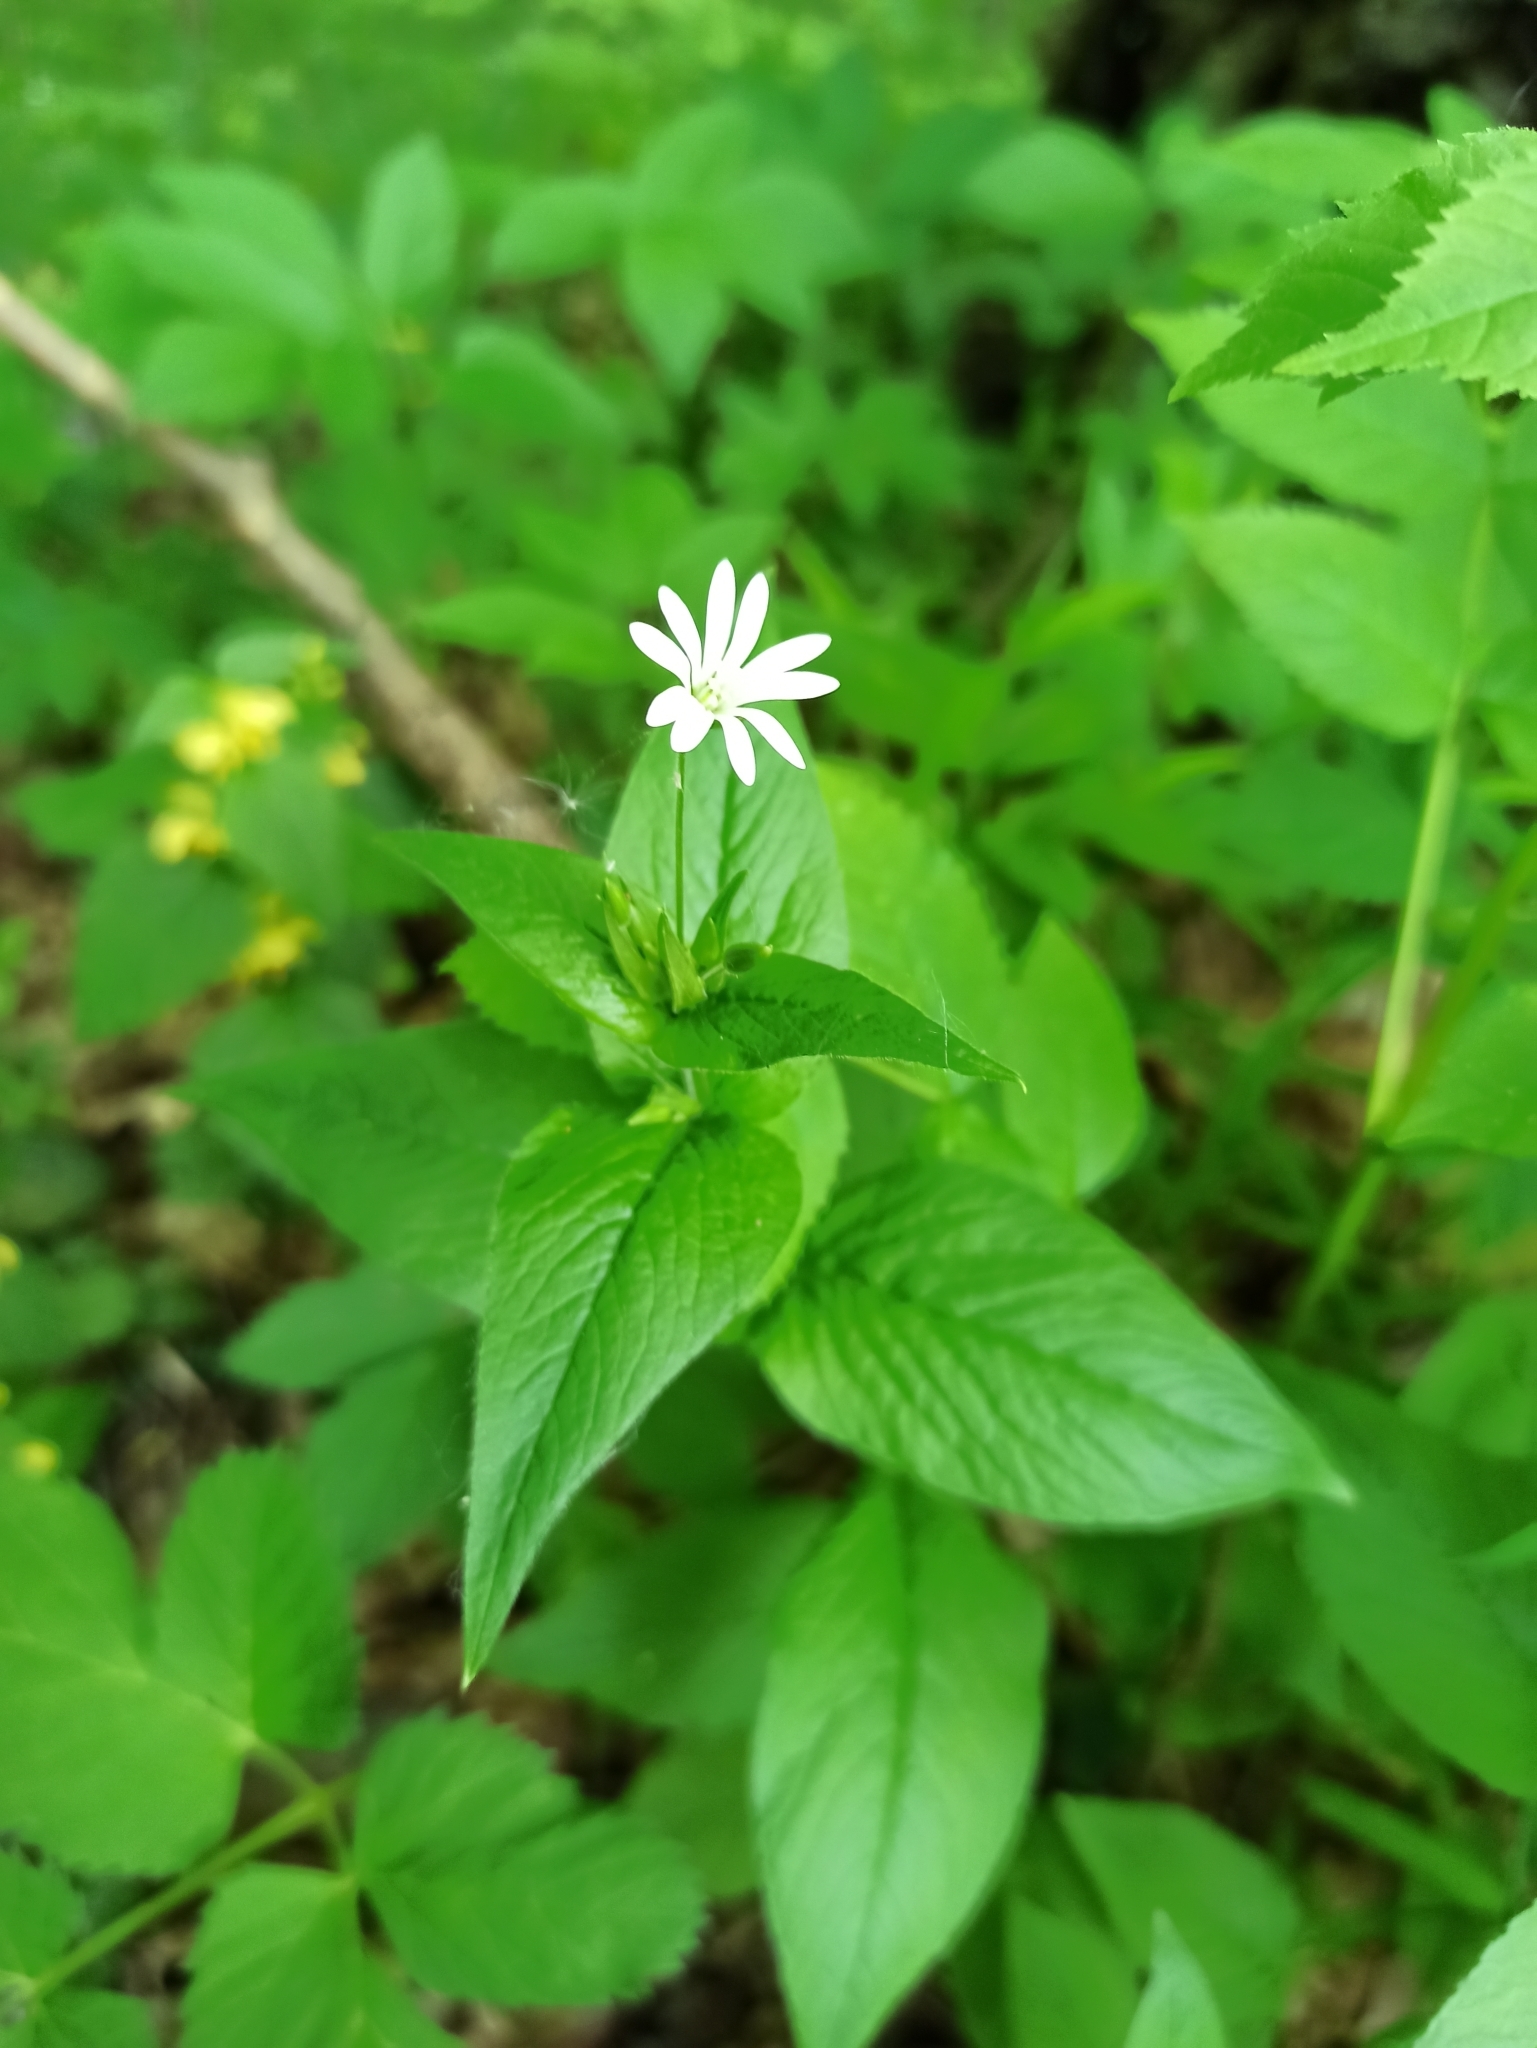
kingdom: Plantae
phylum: Tracheophyta
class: Magnoliopsida
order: Caryophyllales
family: Caryophyllaceae
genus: Stellaria
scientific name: Stellaria nemorum
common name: Wood stitchwort
